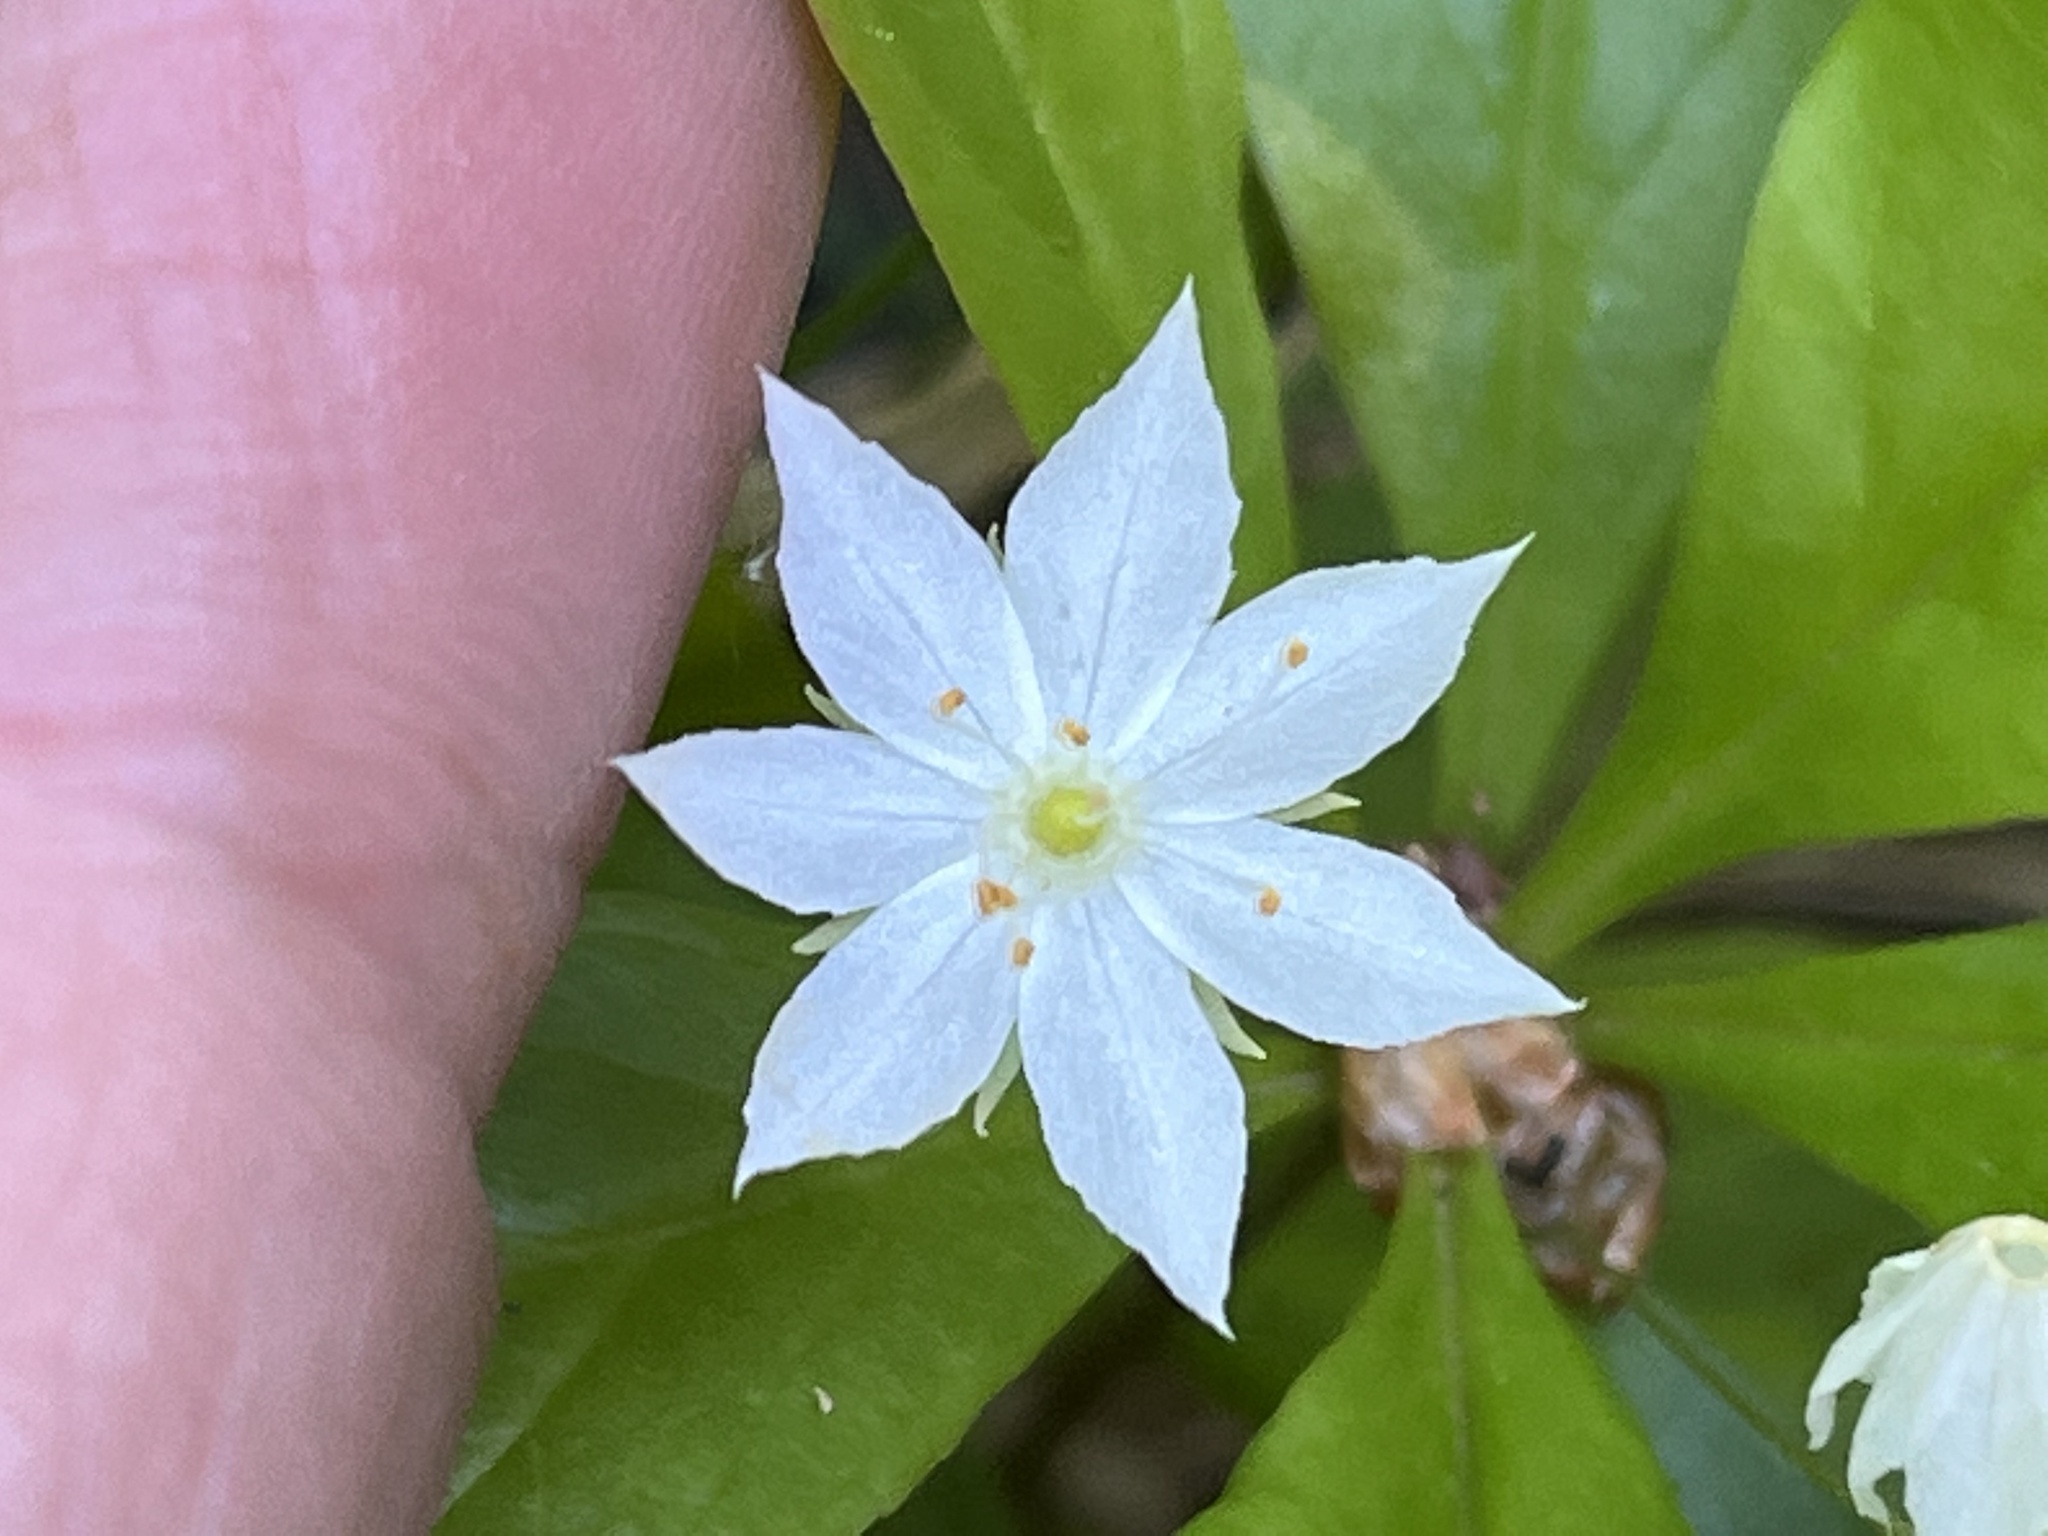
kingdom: Plantae
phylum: Tracheophyta
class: Magnoliopsida
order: Ericales
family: Primulaceae
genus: Lysimachia
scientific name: Lysimachia borealis
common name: American starflower
